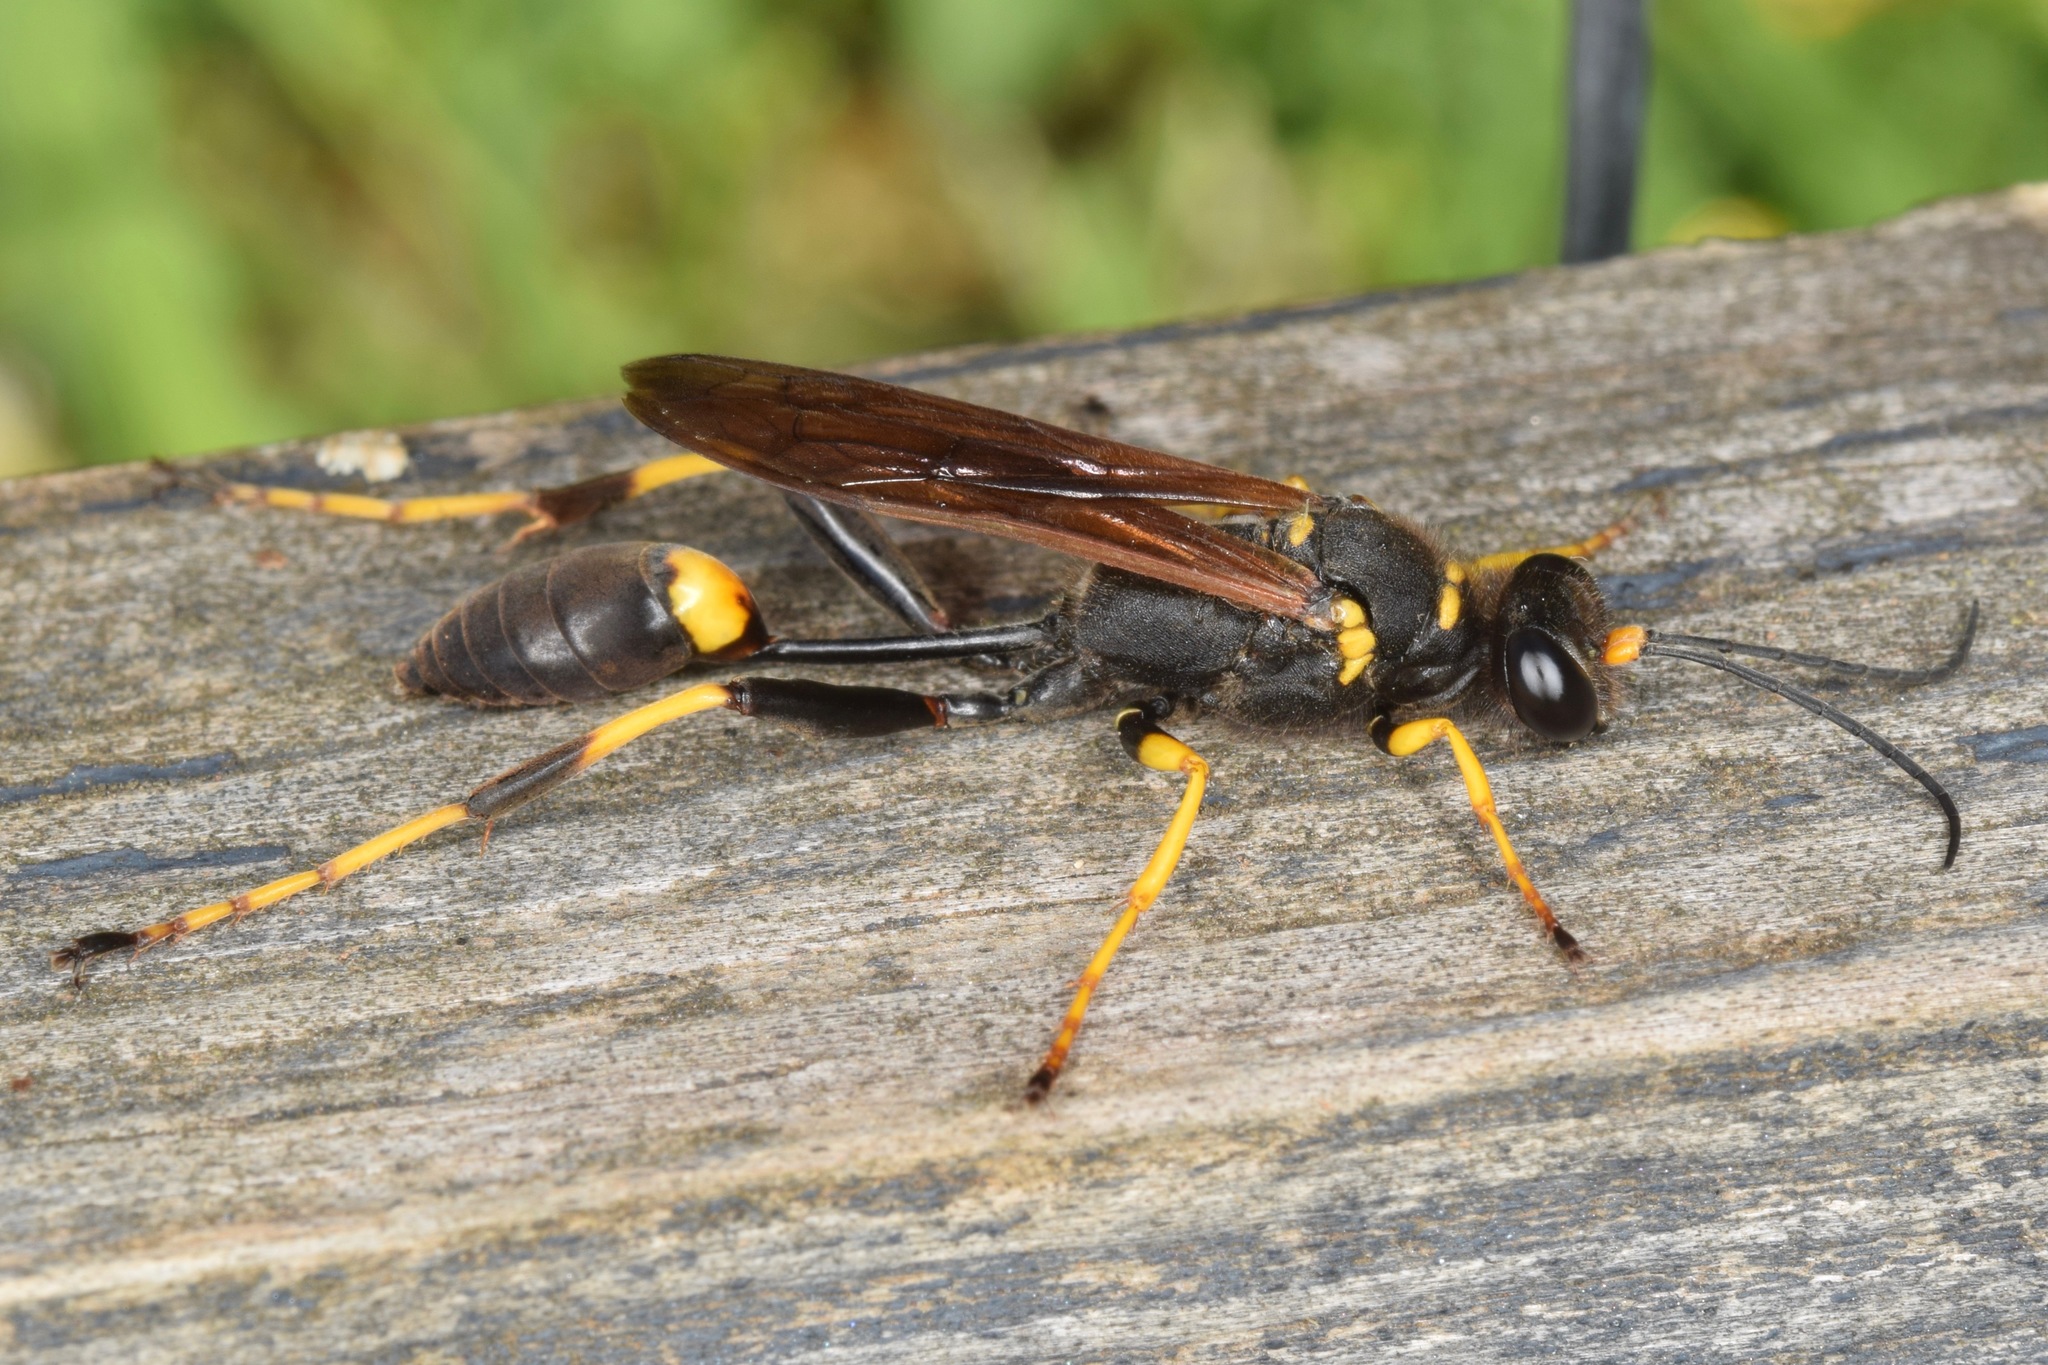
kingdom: Animalia
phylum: Arthropoda
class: Insecta
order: Hymenoptera
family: Sphecidae
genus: Sceliphron
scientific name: Sceliphron caementarium
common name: Mud dauber
